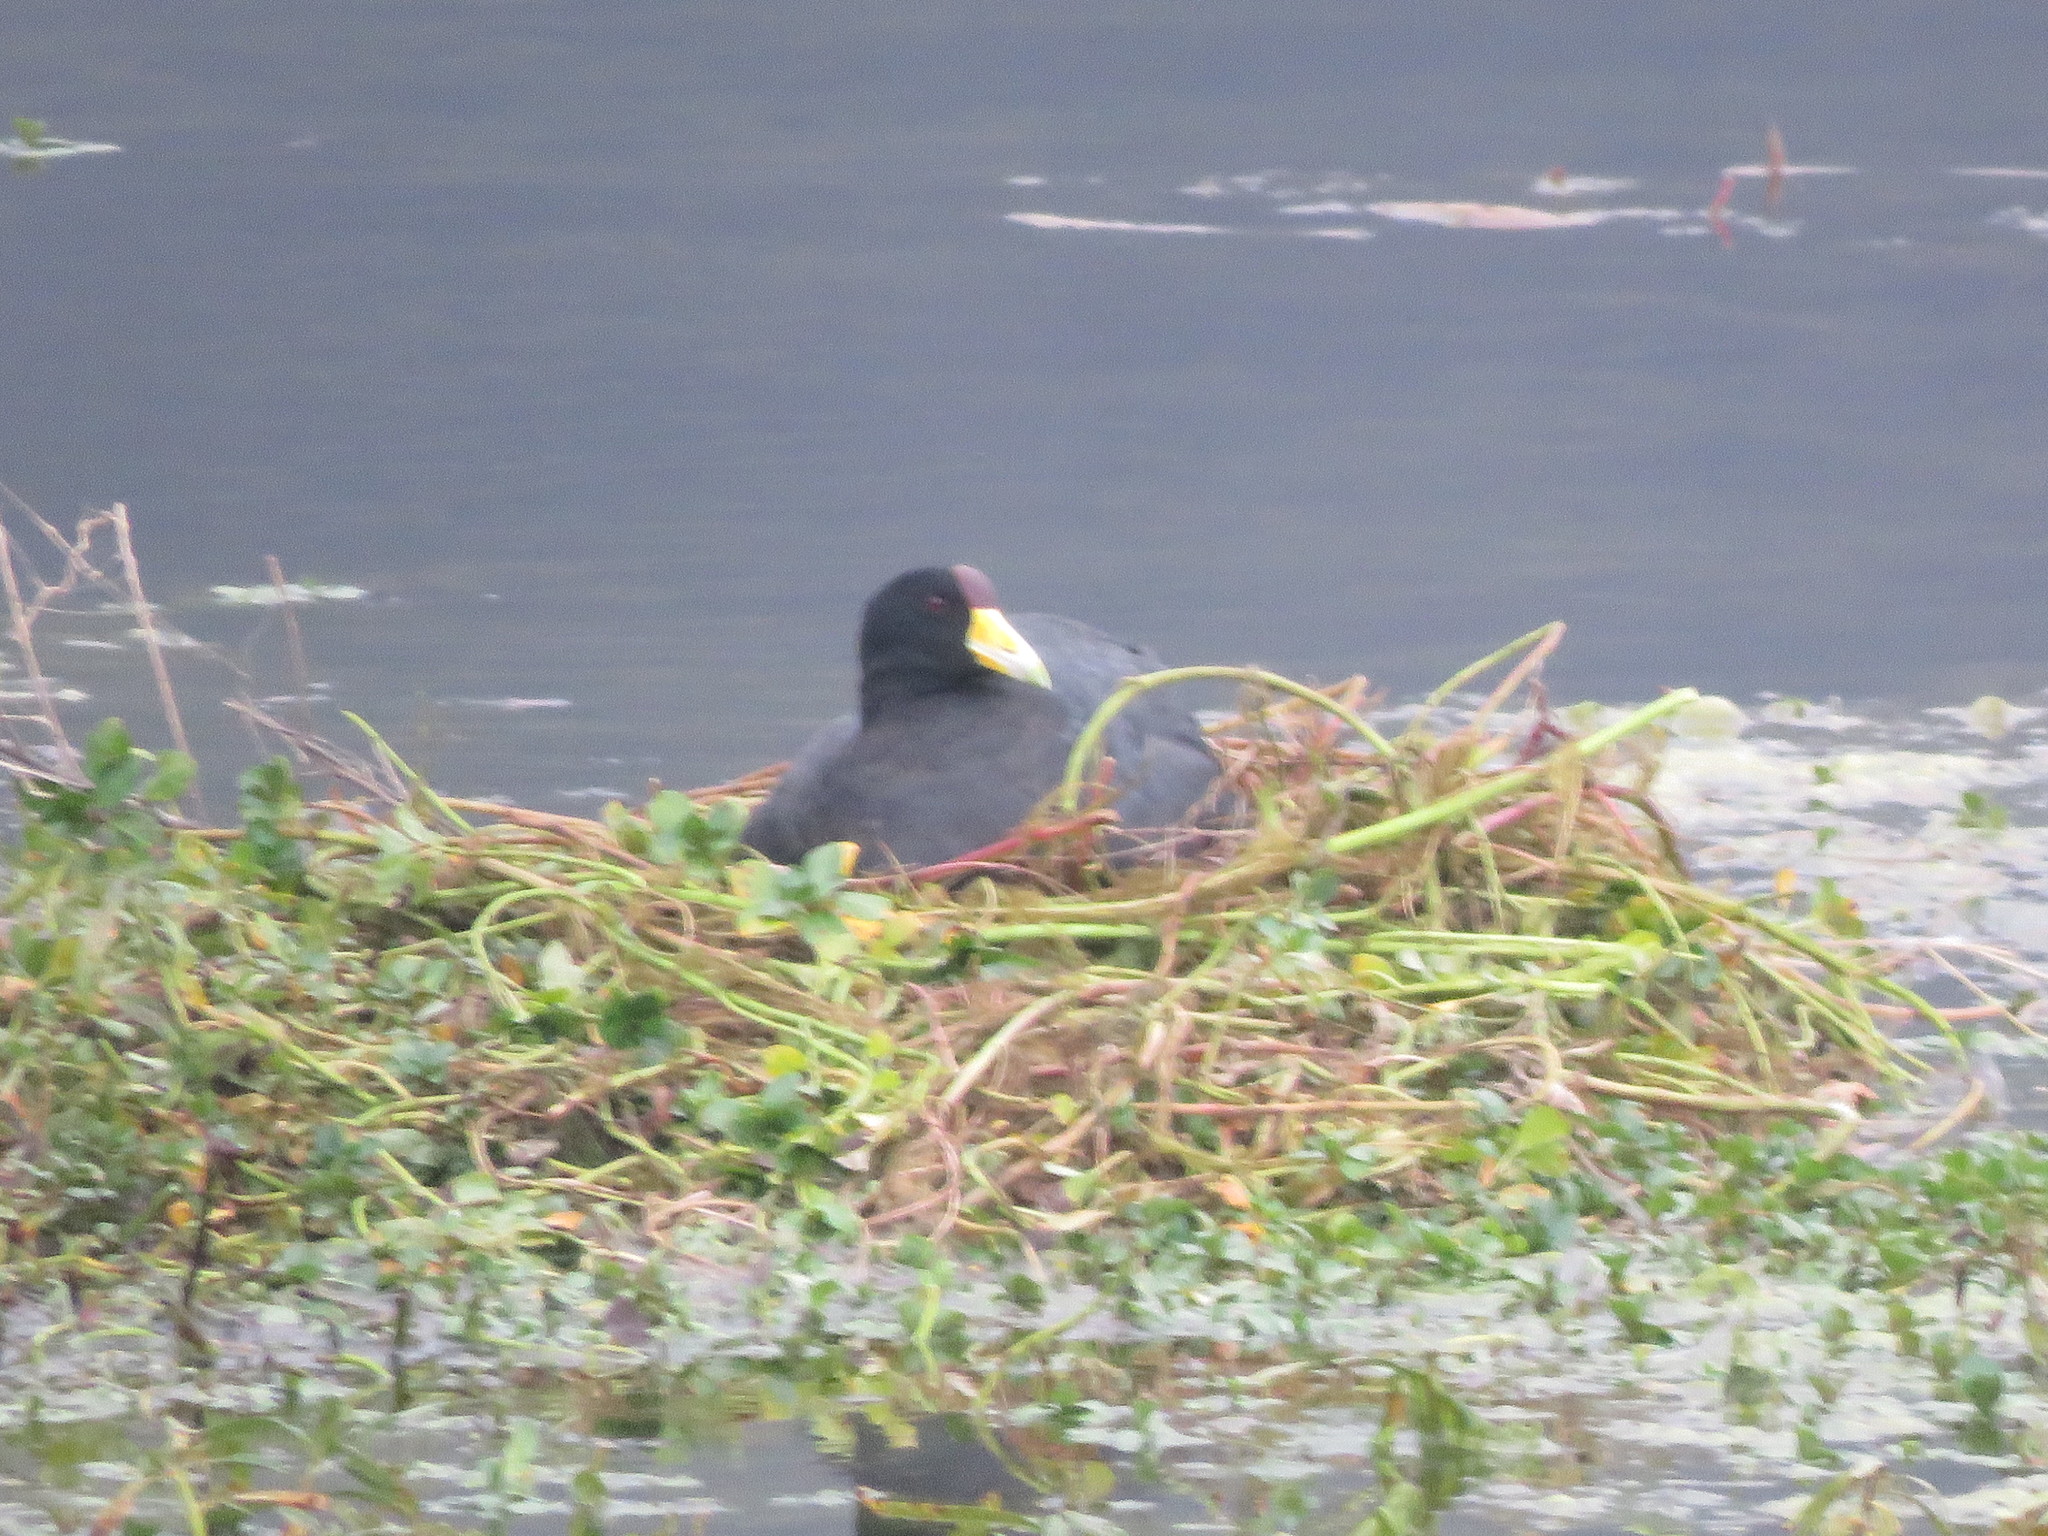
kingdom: Animalia
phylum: Chordata
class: Aves
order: Gruiformes
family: Rallidae
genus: Fulica
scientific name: Fulica ardesiaca
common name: Andean coot
